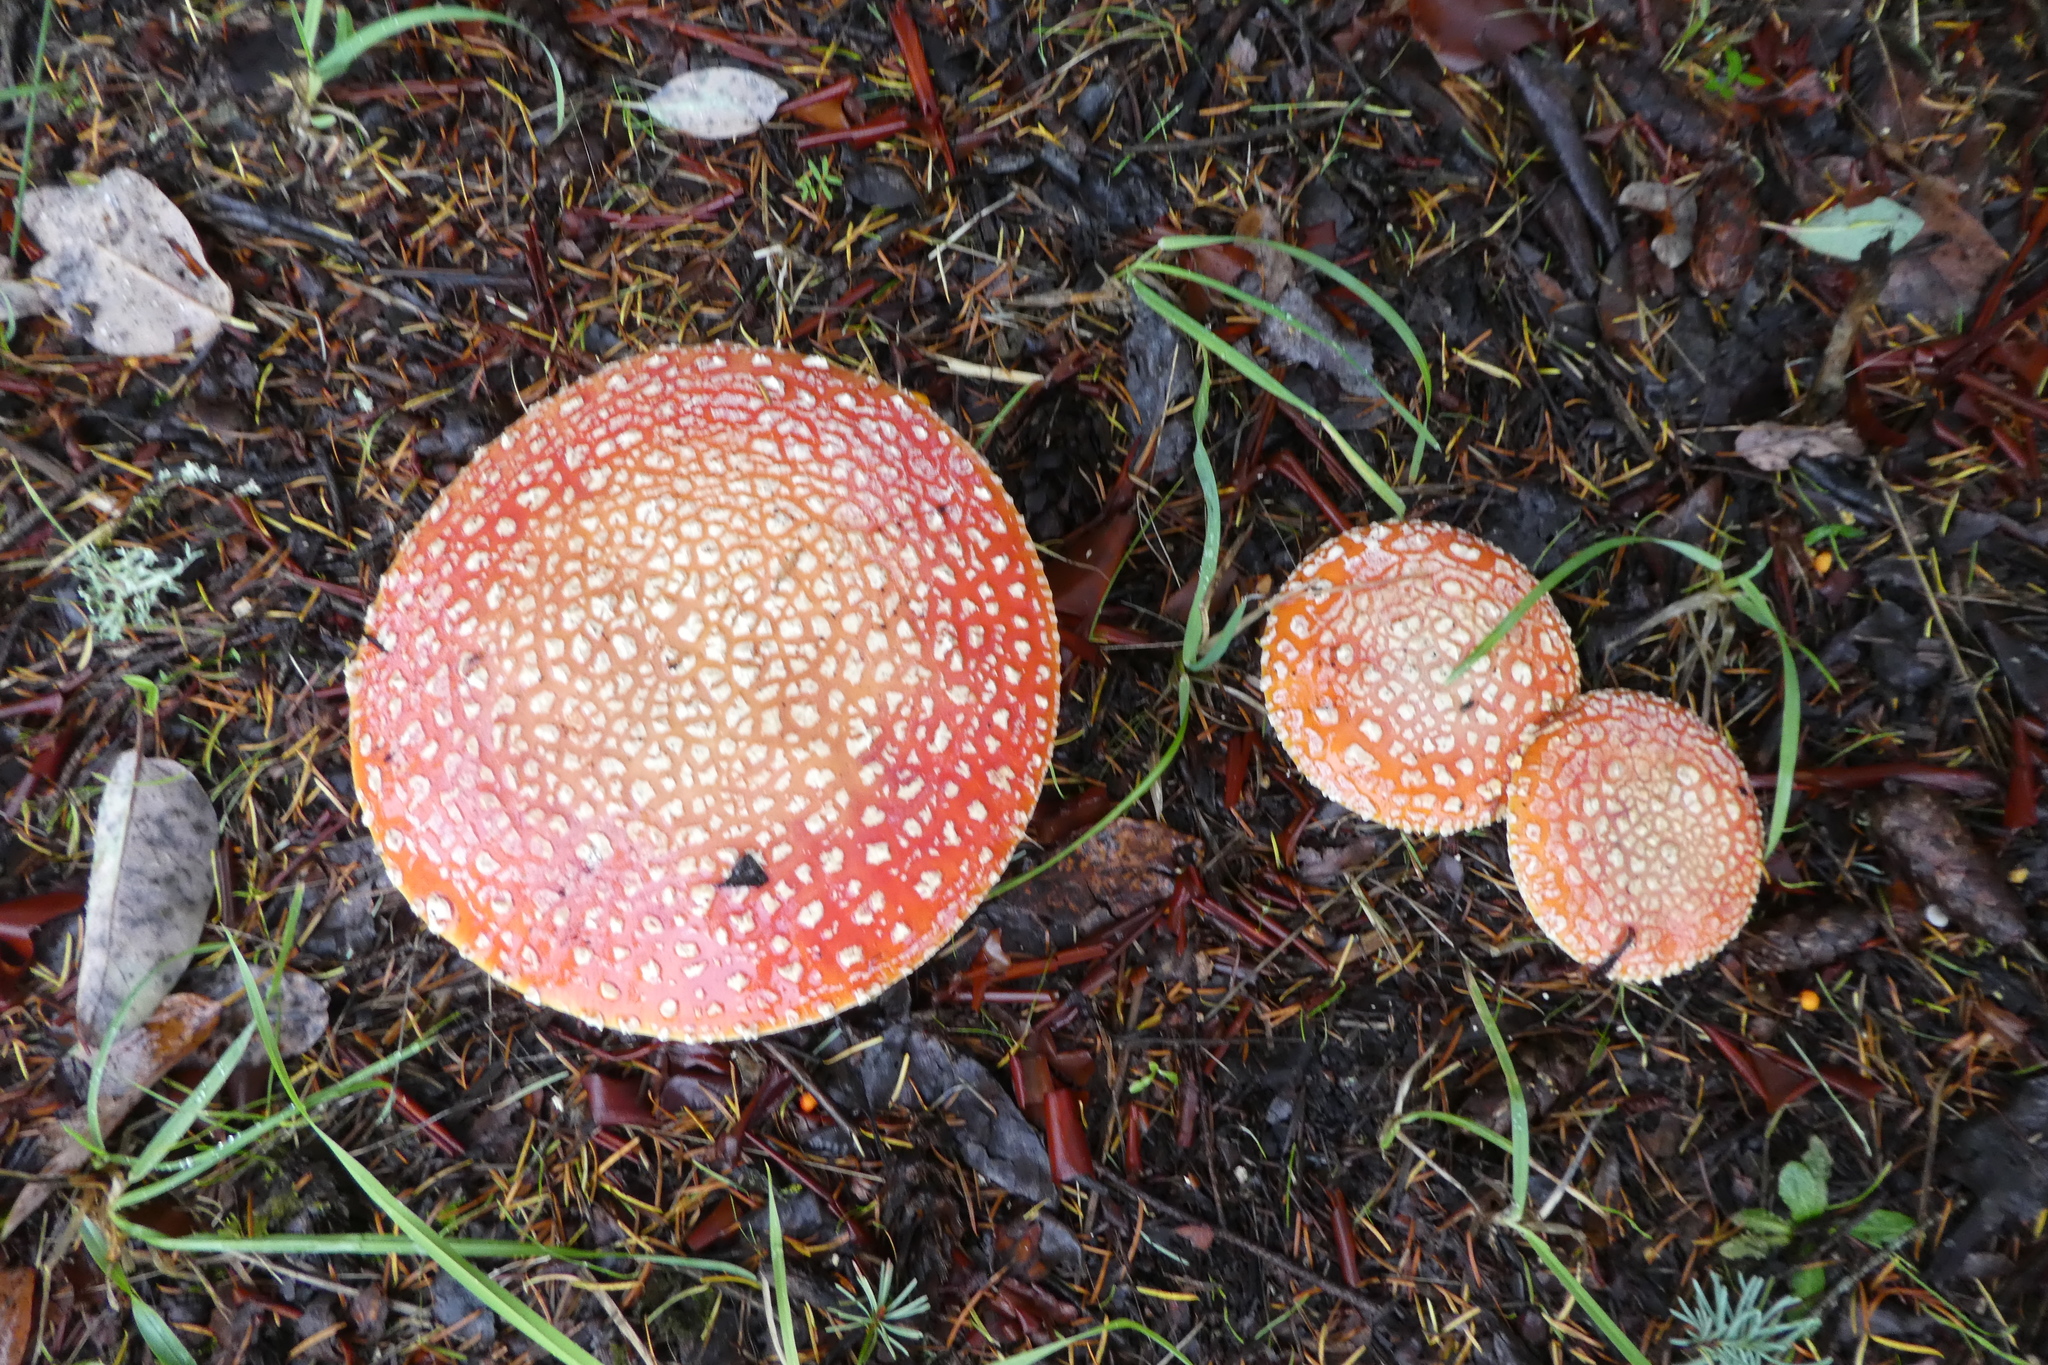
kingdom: Fungi
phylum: Basidiomycota
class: Agaricomycetes
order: Agaricales
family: Amanitaceae
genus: Amanita
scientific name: Amanita muscaria
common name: Fly agaric
